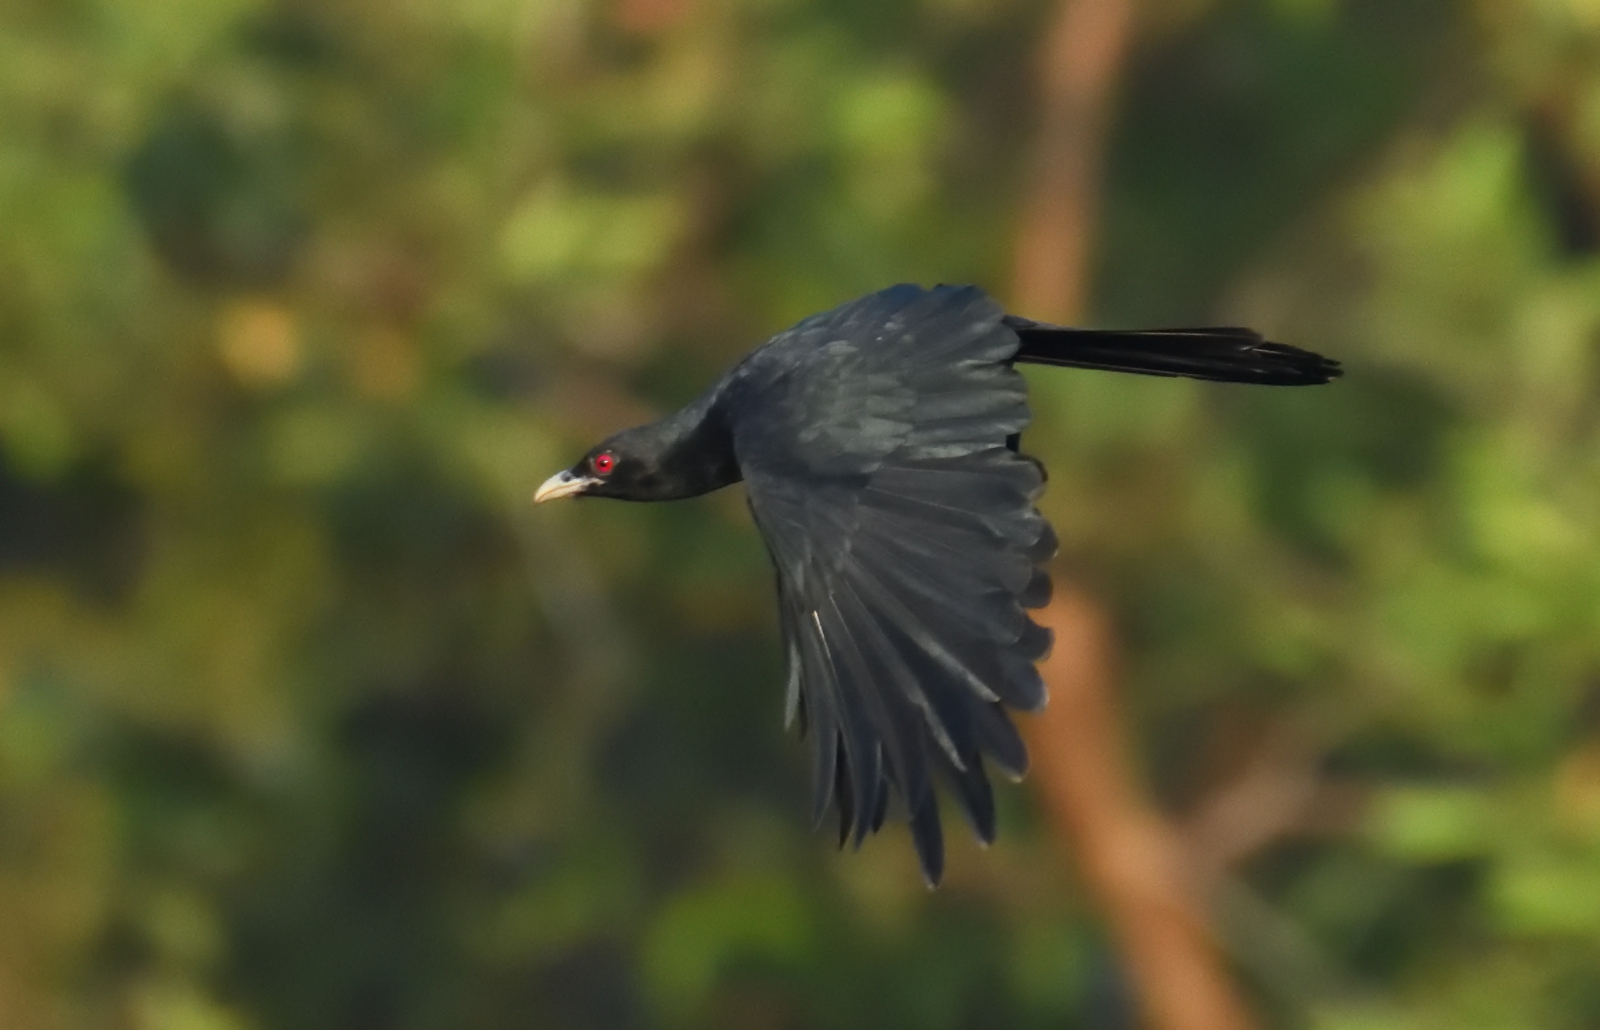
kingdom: Animalia
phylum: Chordata
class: Aves
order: Cuculiformes
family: Cuculidae
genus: Eudynamys
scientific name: Eudynamys scolopaceus
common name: Asian koel
